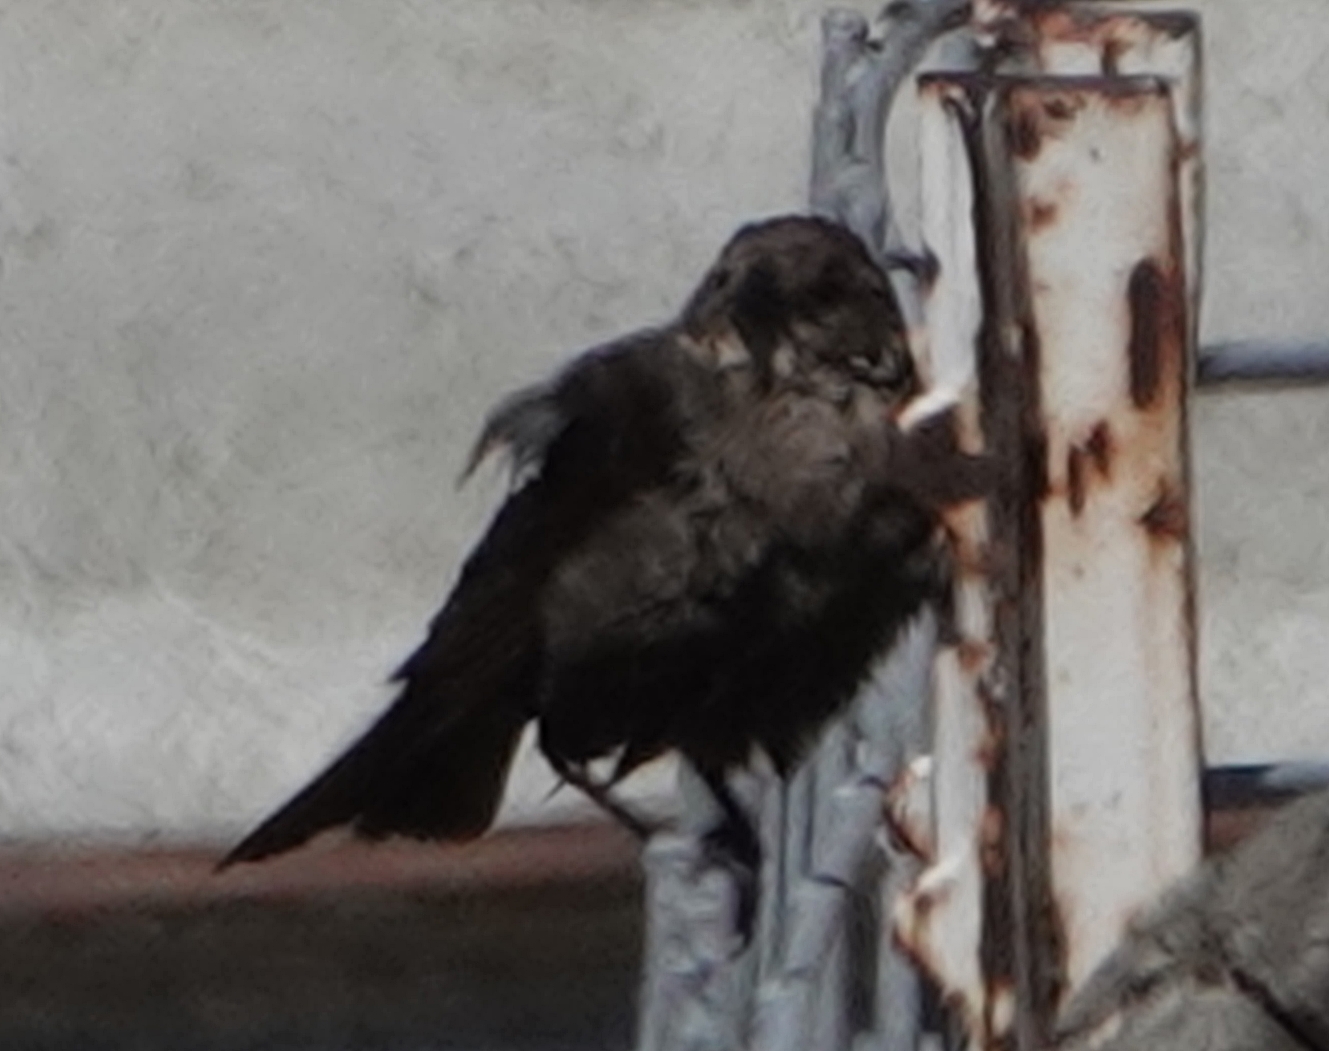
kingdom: Animalia
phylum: Chordata
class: Aves
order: Passeriformes
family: Icteridae
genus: Molothrus
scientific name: Molothrus ater
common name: Brown-headed cowbird
